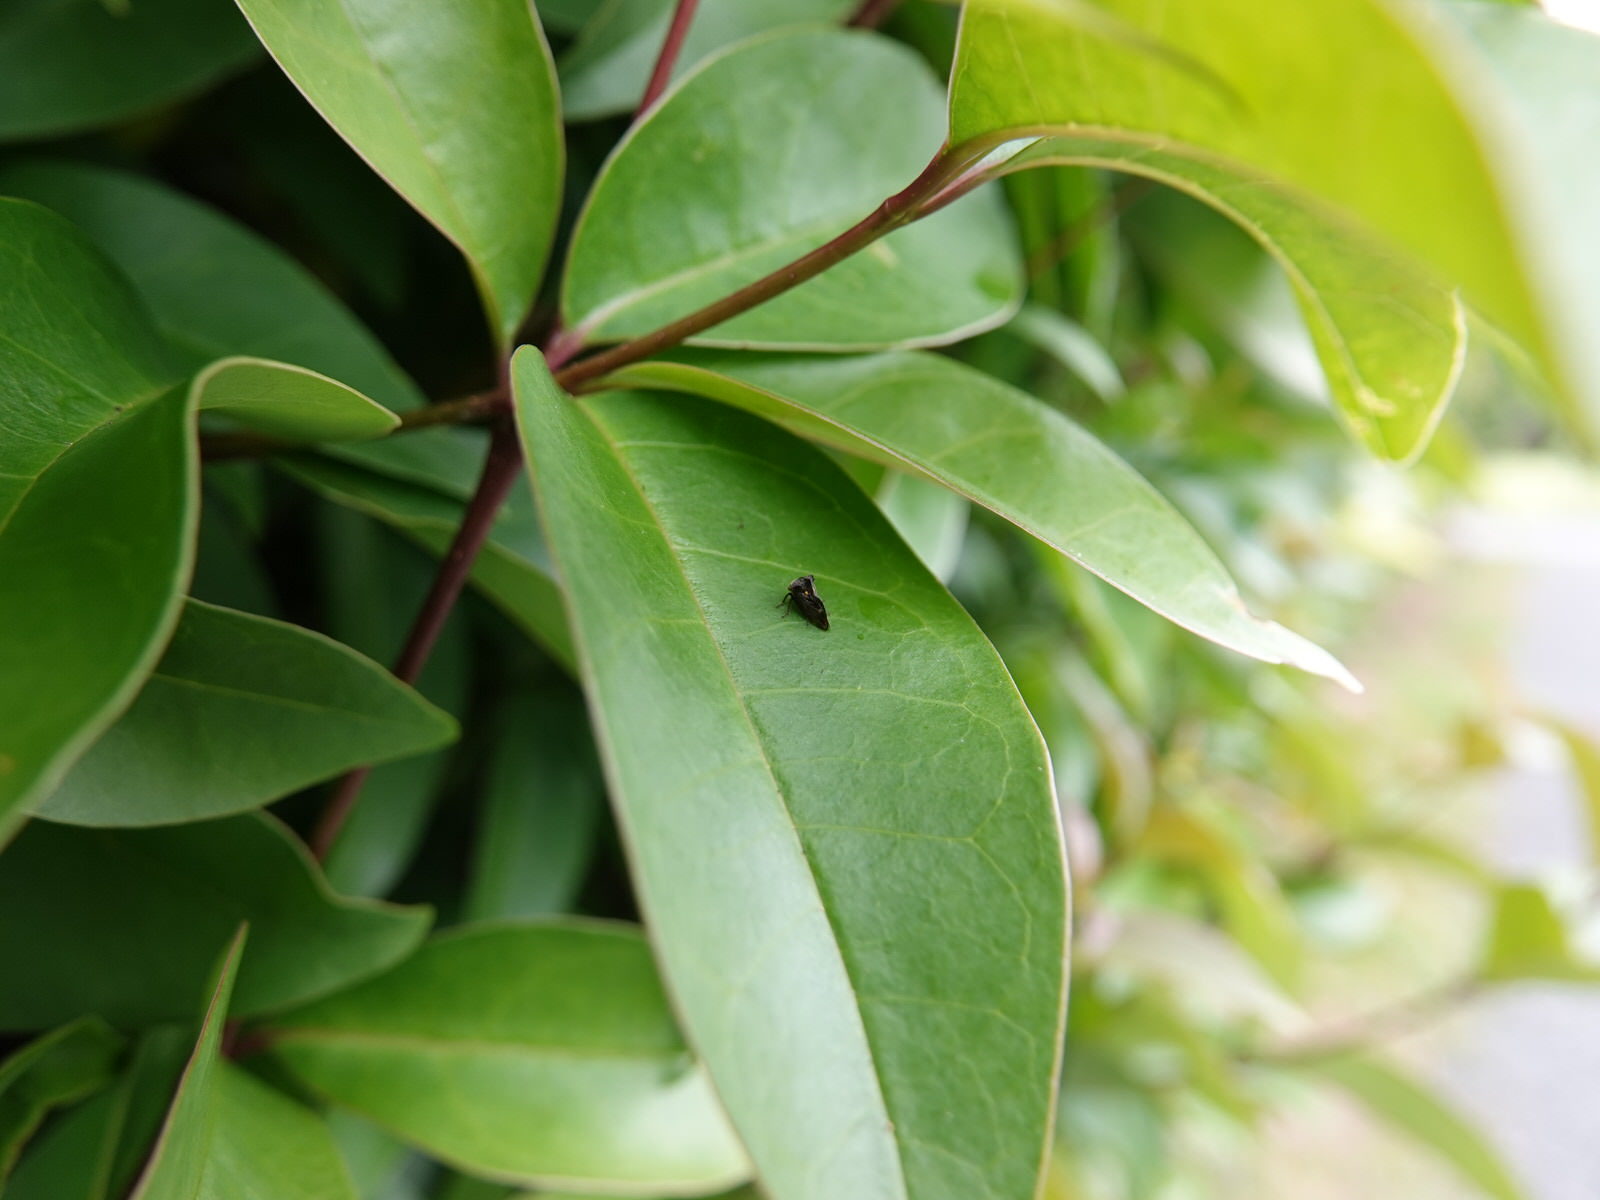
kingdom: Animalia
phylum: Arthropoda
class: Insecta
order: Hemiptera
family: Membracidae
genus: Acanthuchus
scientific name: Acanthuchus trispinifer
